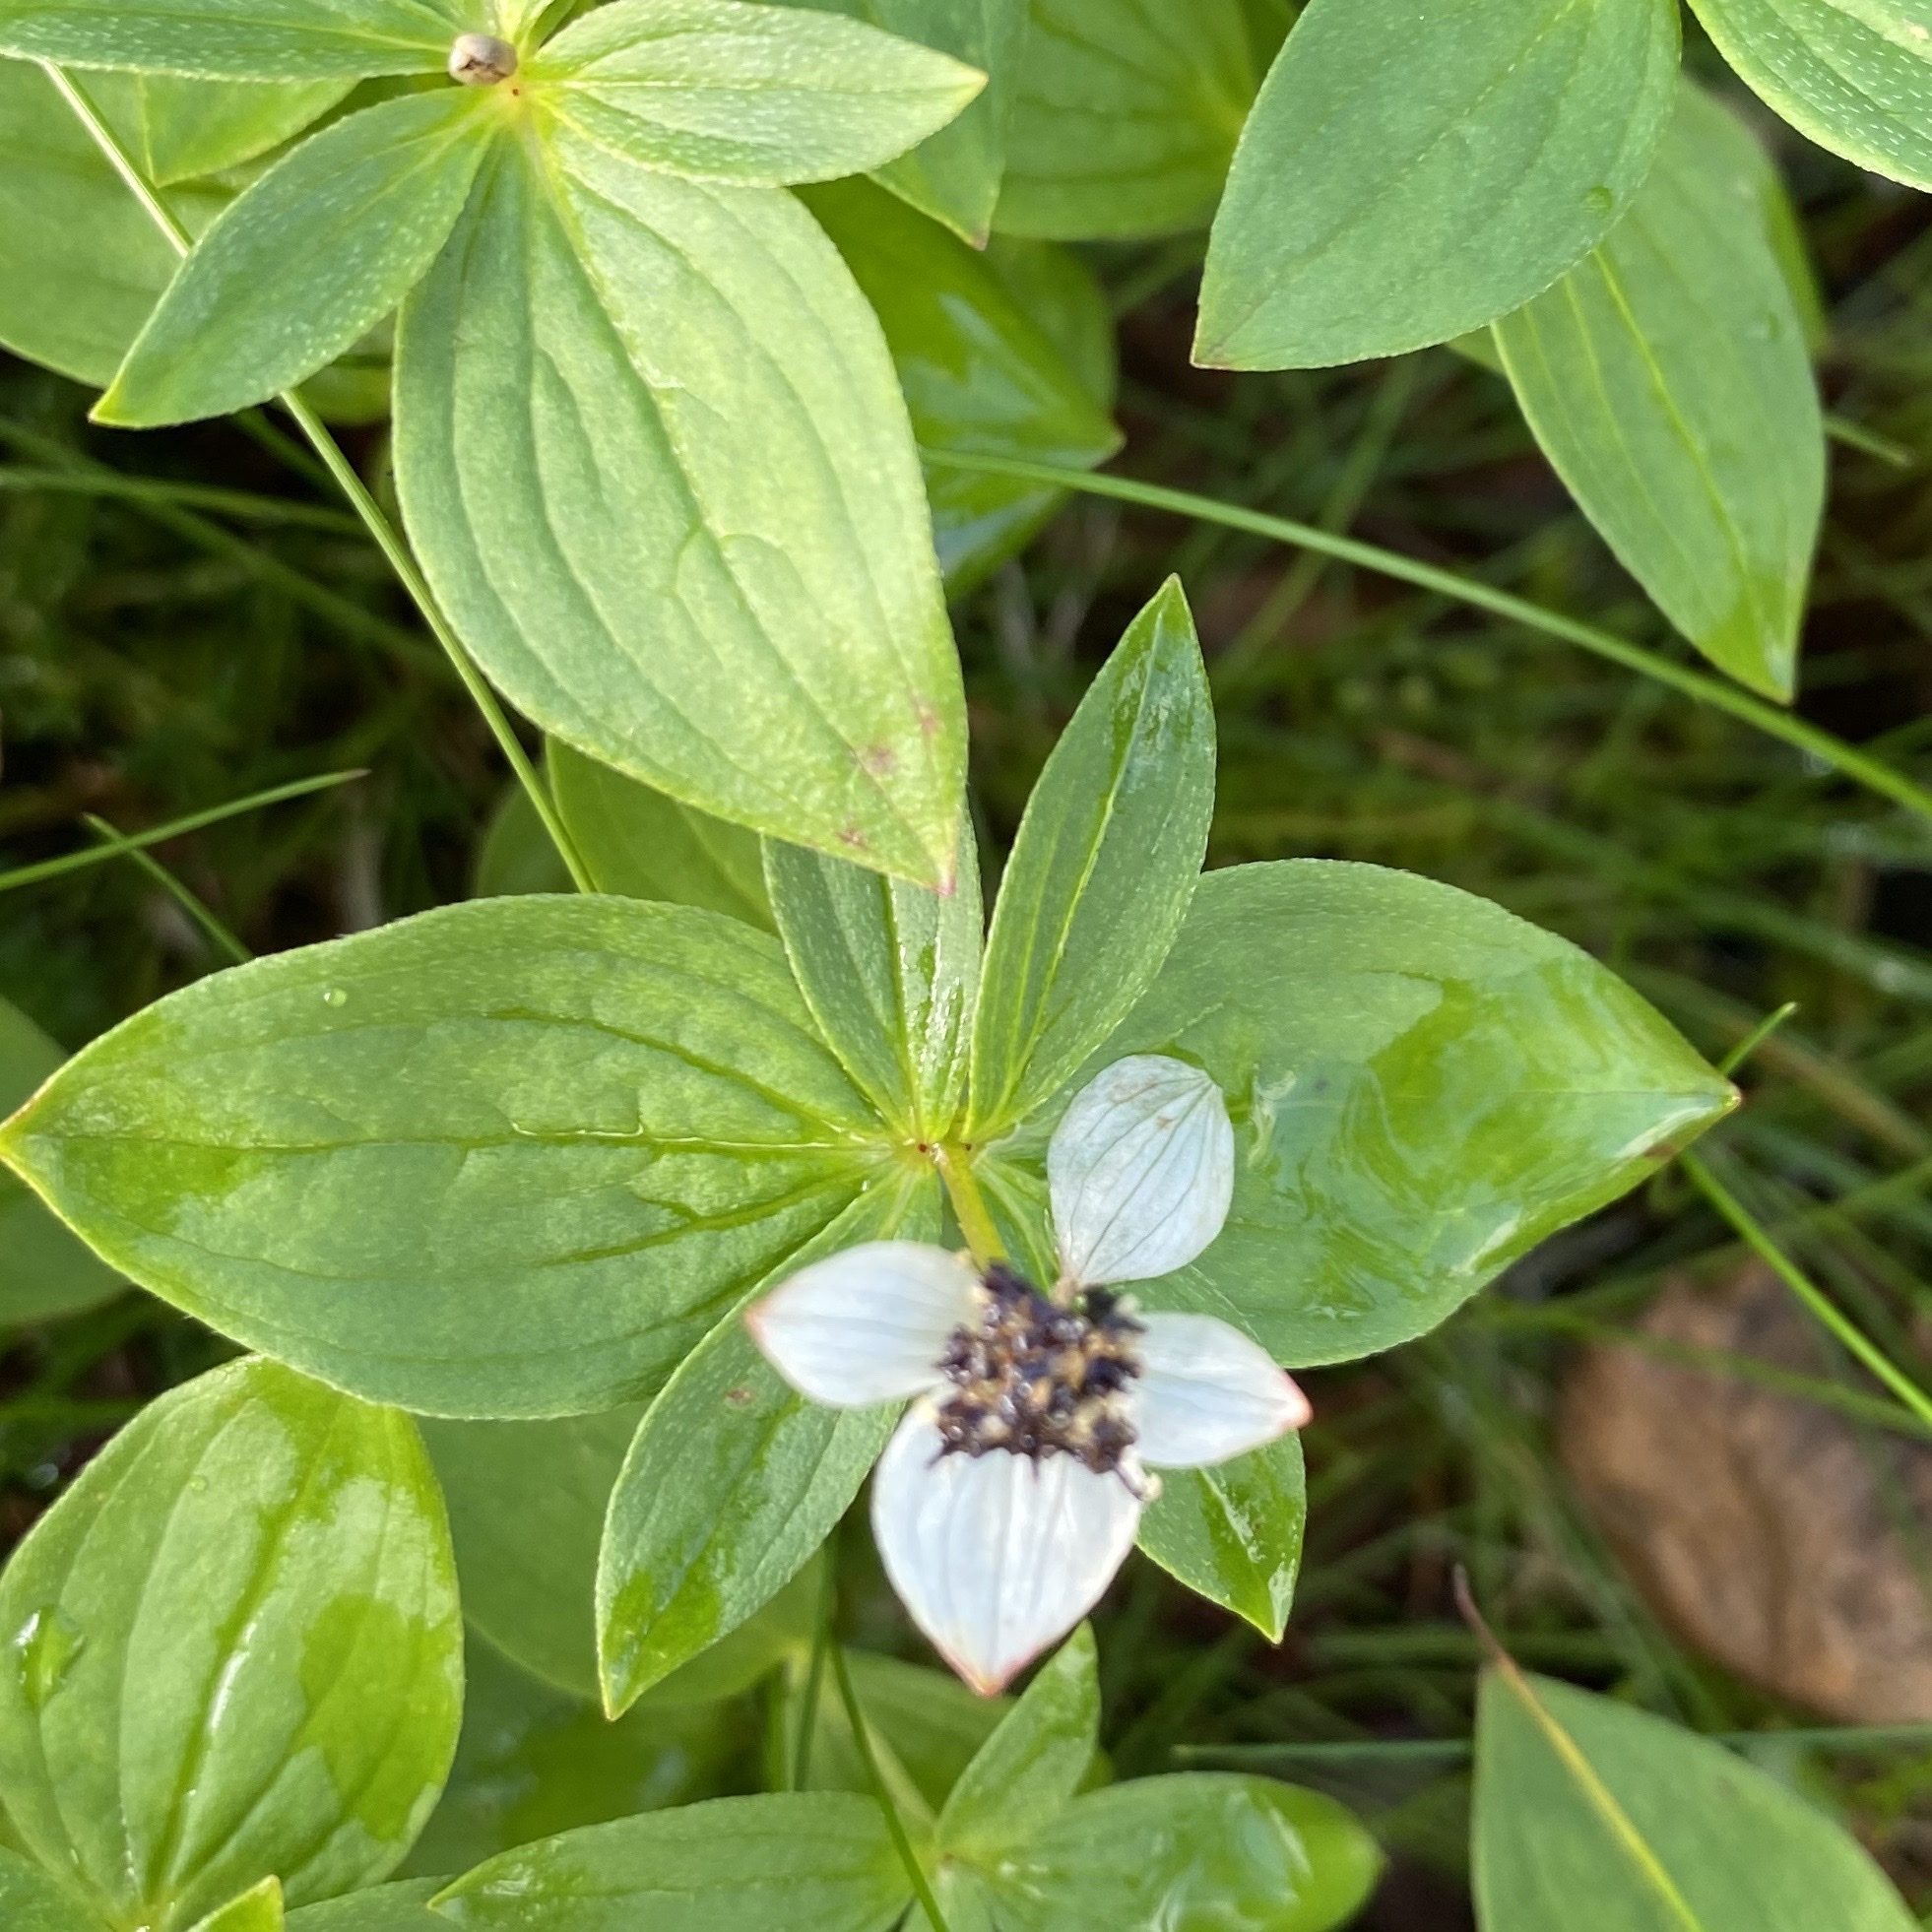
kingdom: Plantae
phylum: Tracheophyta
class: Magnoliopsida
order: Cornales
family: Cornaceae
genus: Cornus
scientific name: Cornus suecica
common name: Dwarf cornel
